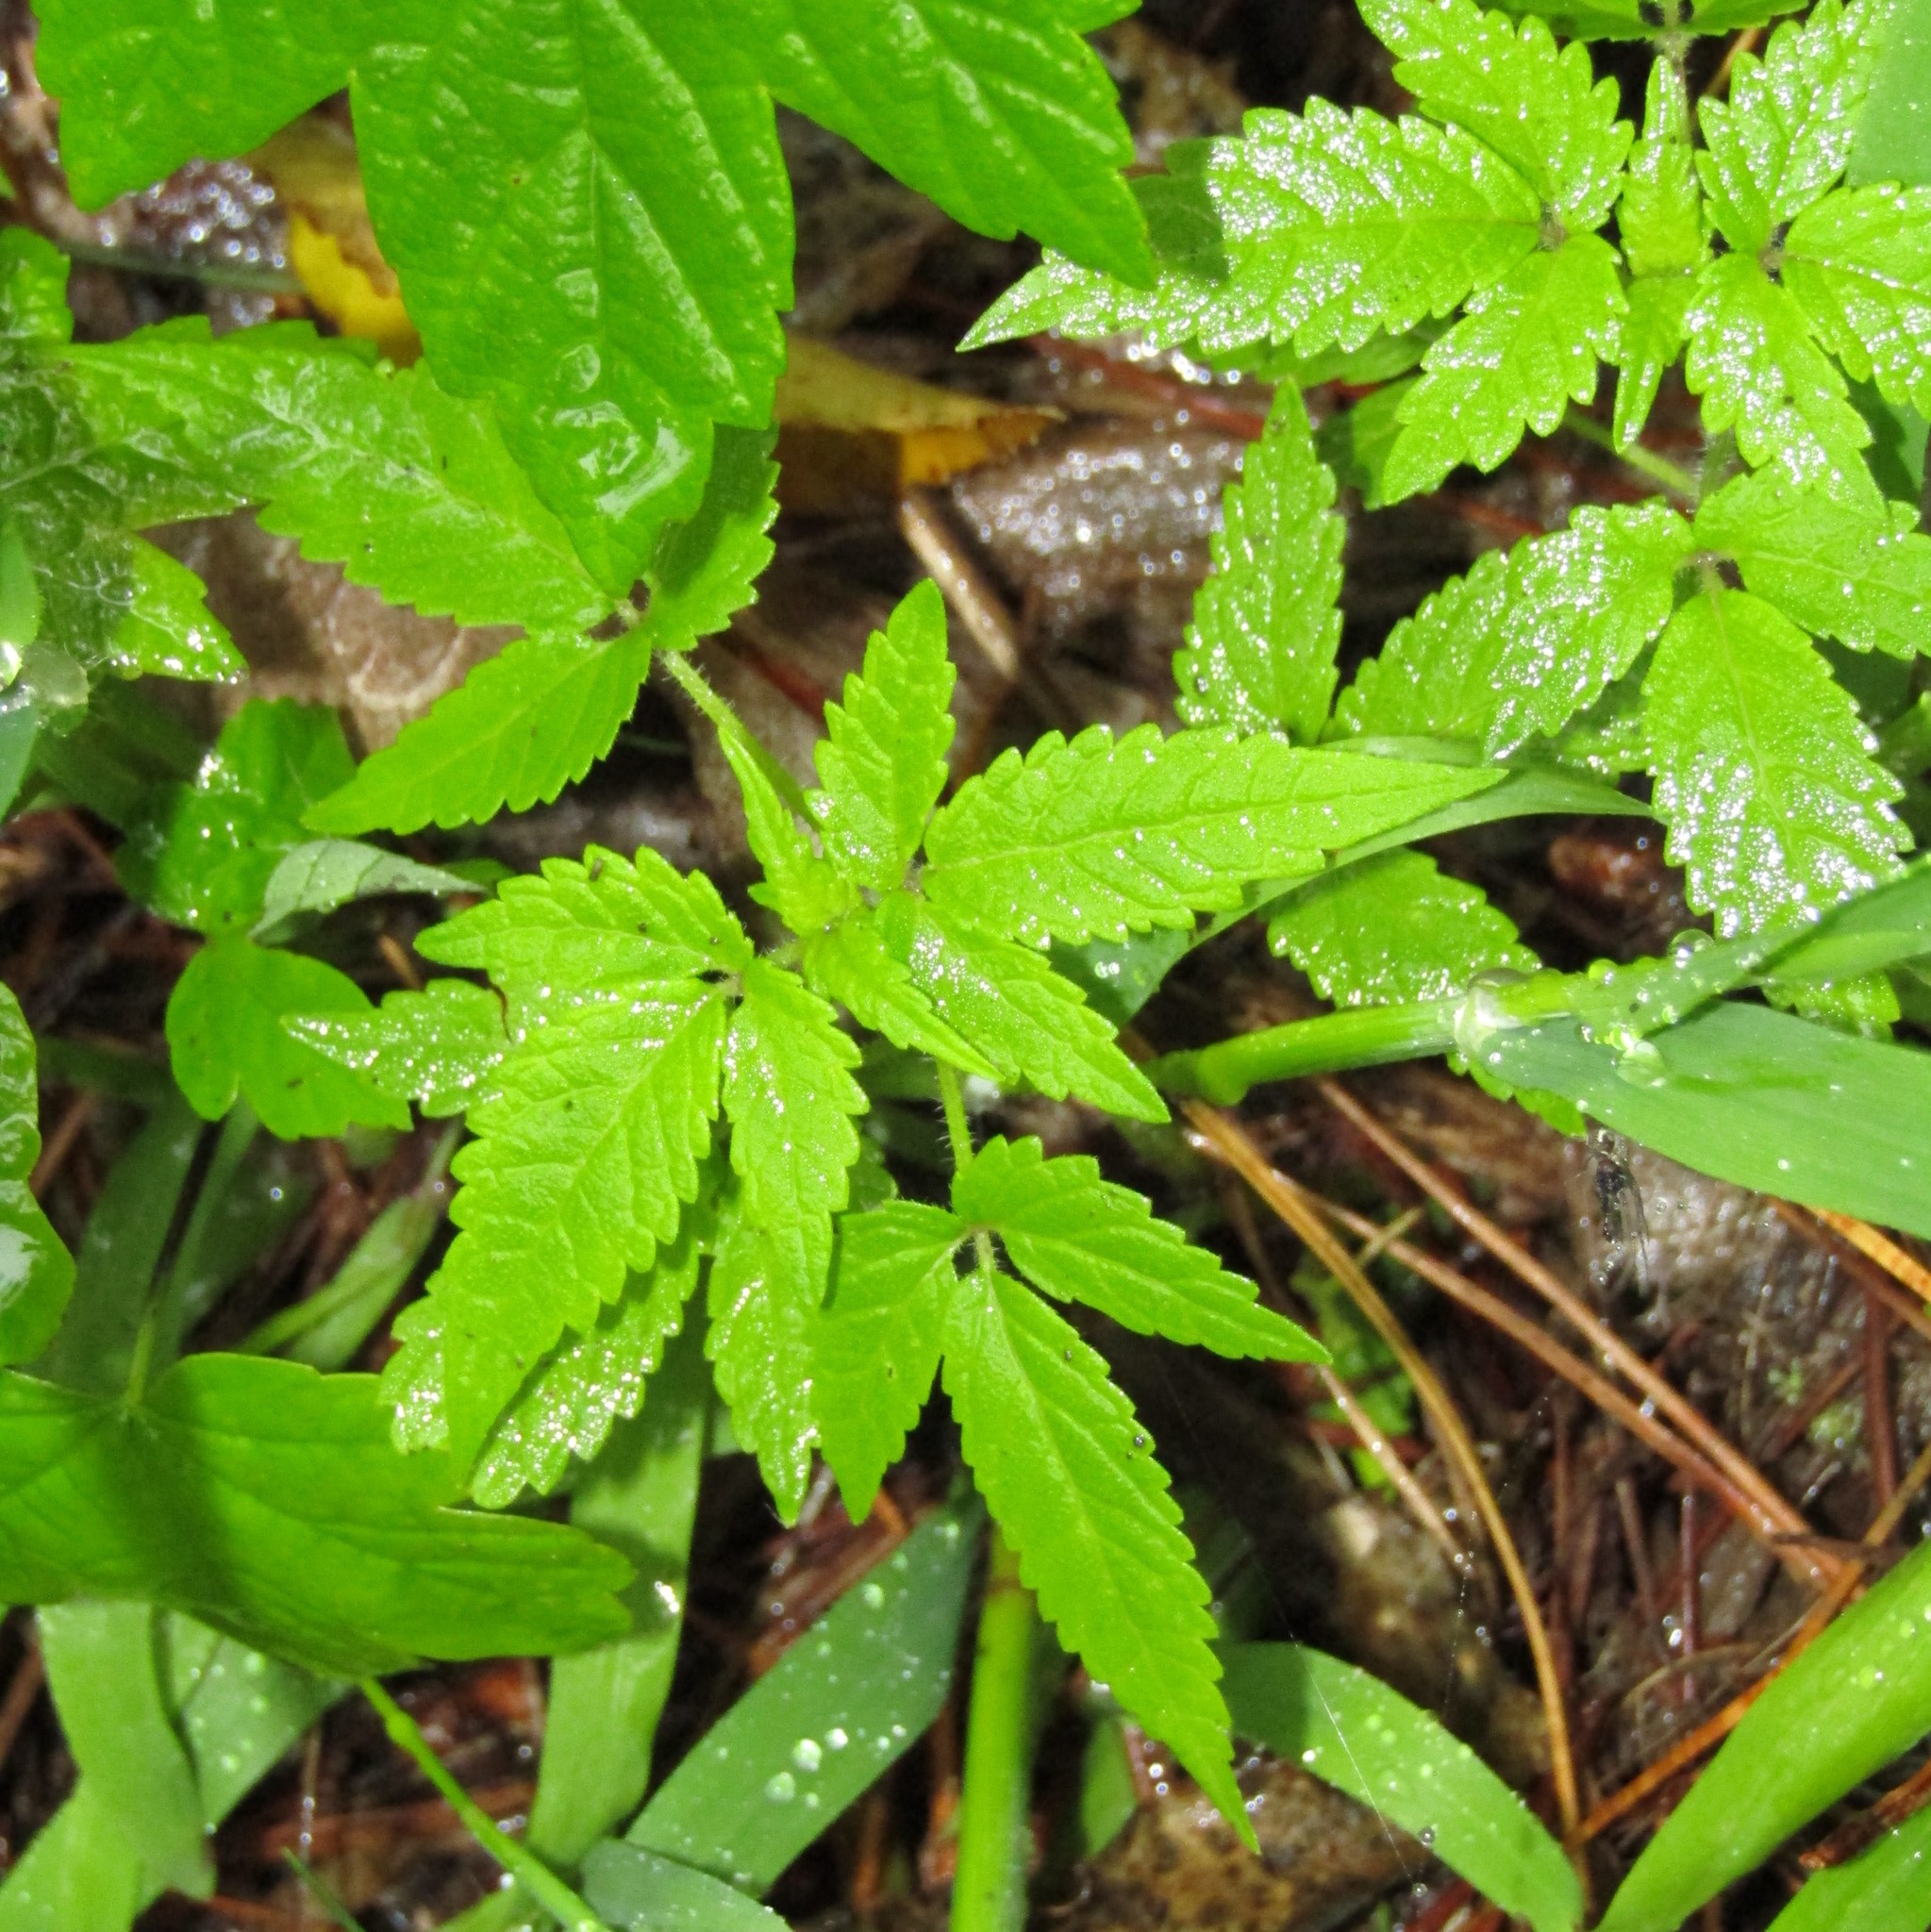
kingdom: Plantae
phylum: Tracheophyta
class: Magnoliopsida
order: Lamiales
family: Lamiaceae
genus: Cedronella
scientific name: Cedronella canariensis
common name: Canary islands balm
